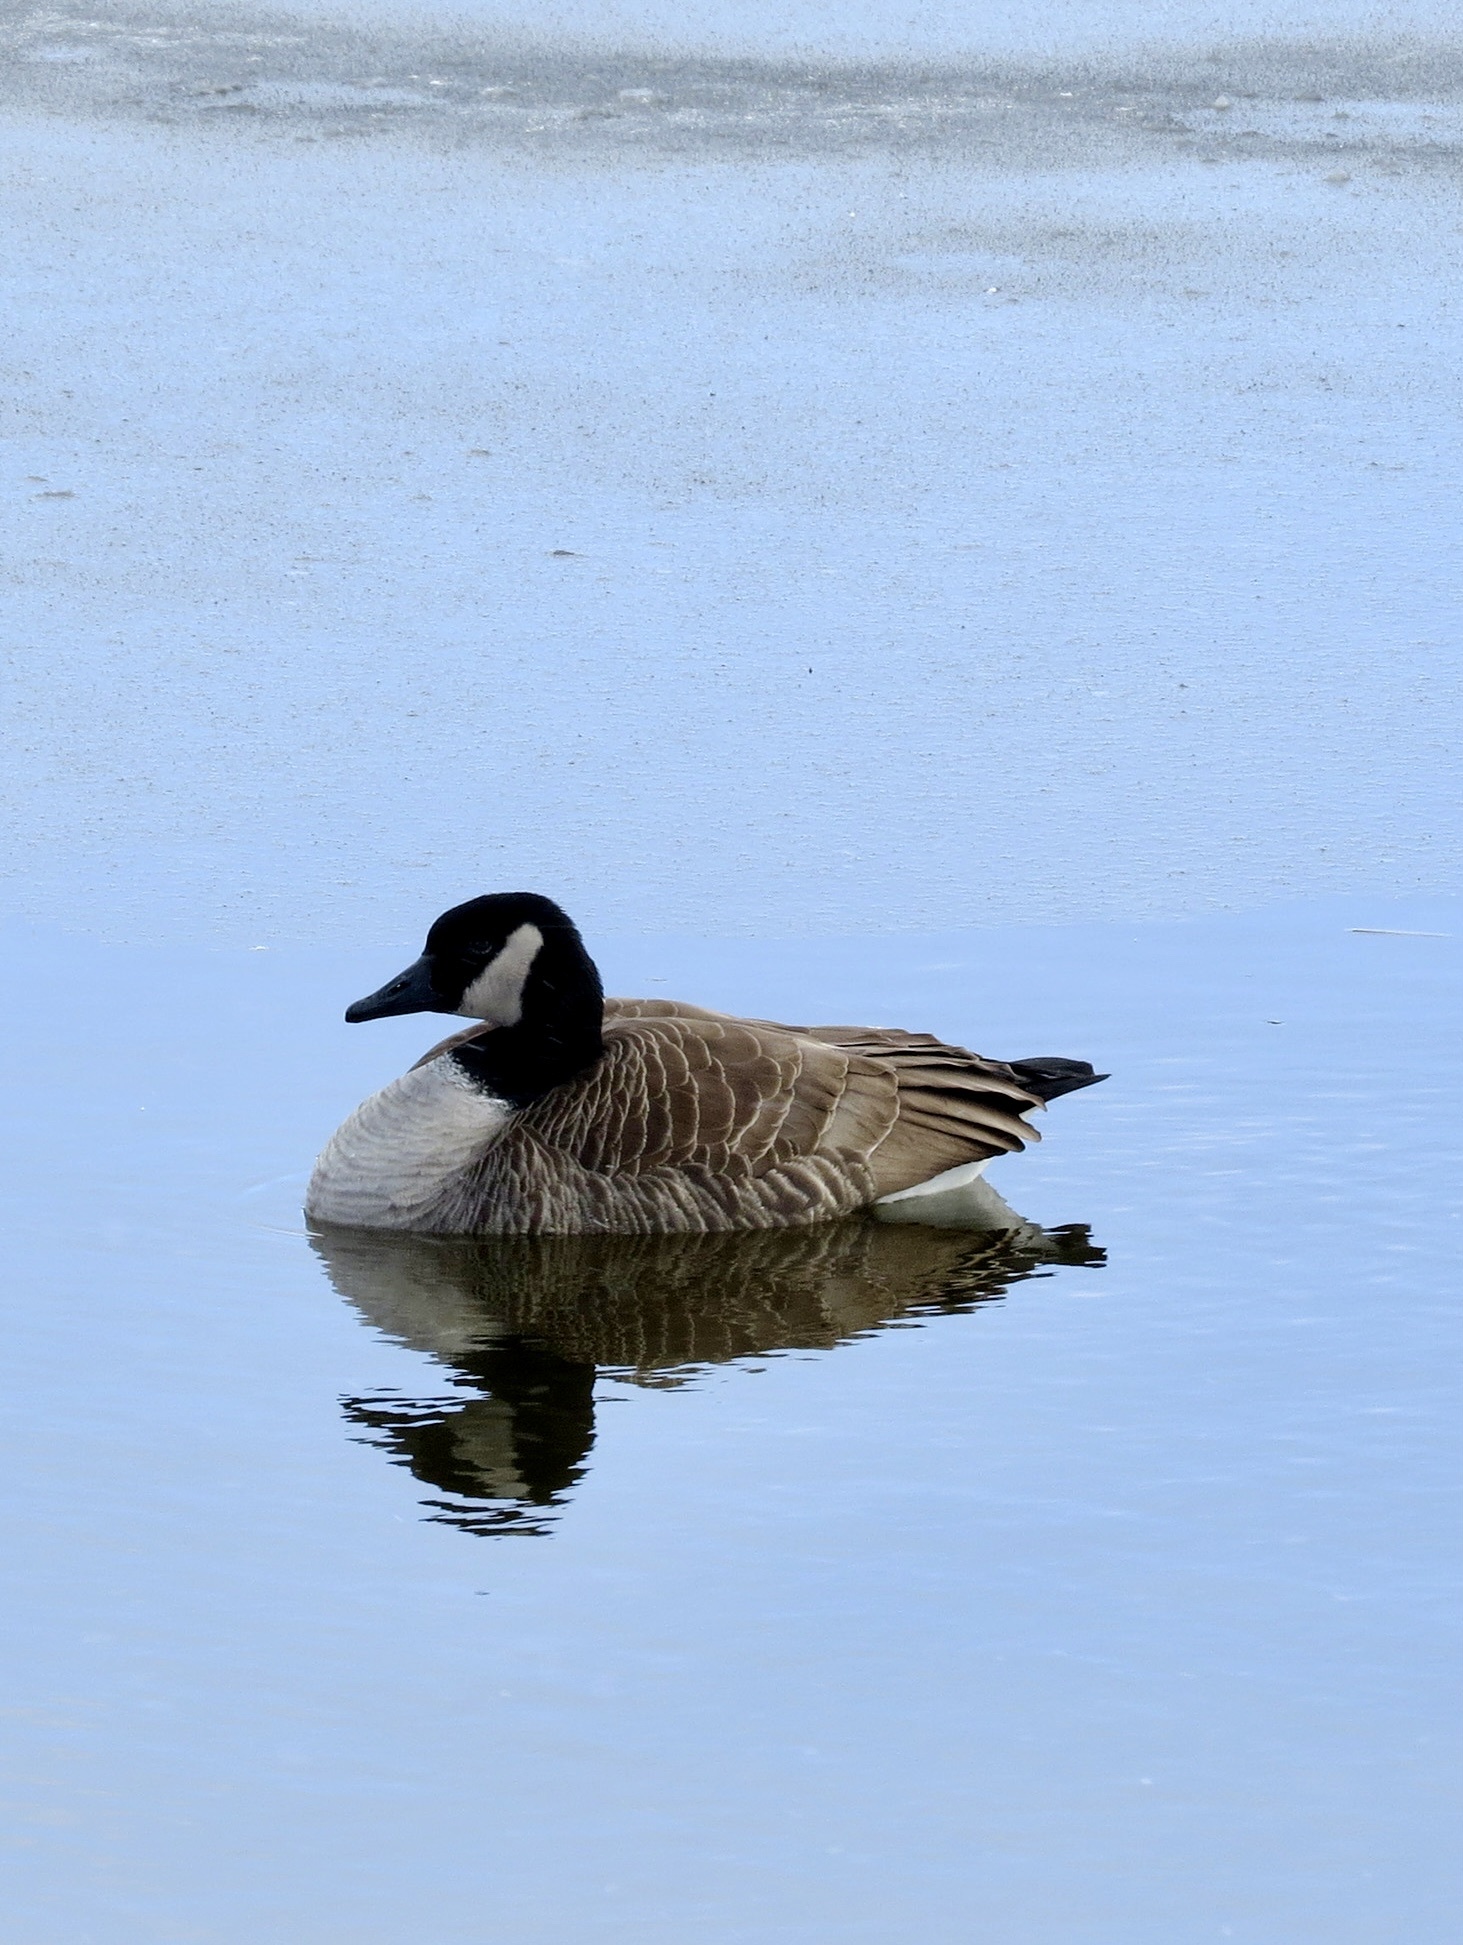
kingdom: Animalia
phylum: Chordata
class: Aves
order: Anseriformes
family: Anatidae
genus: Branta
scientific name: Branta canadensis
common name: Canada goose
